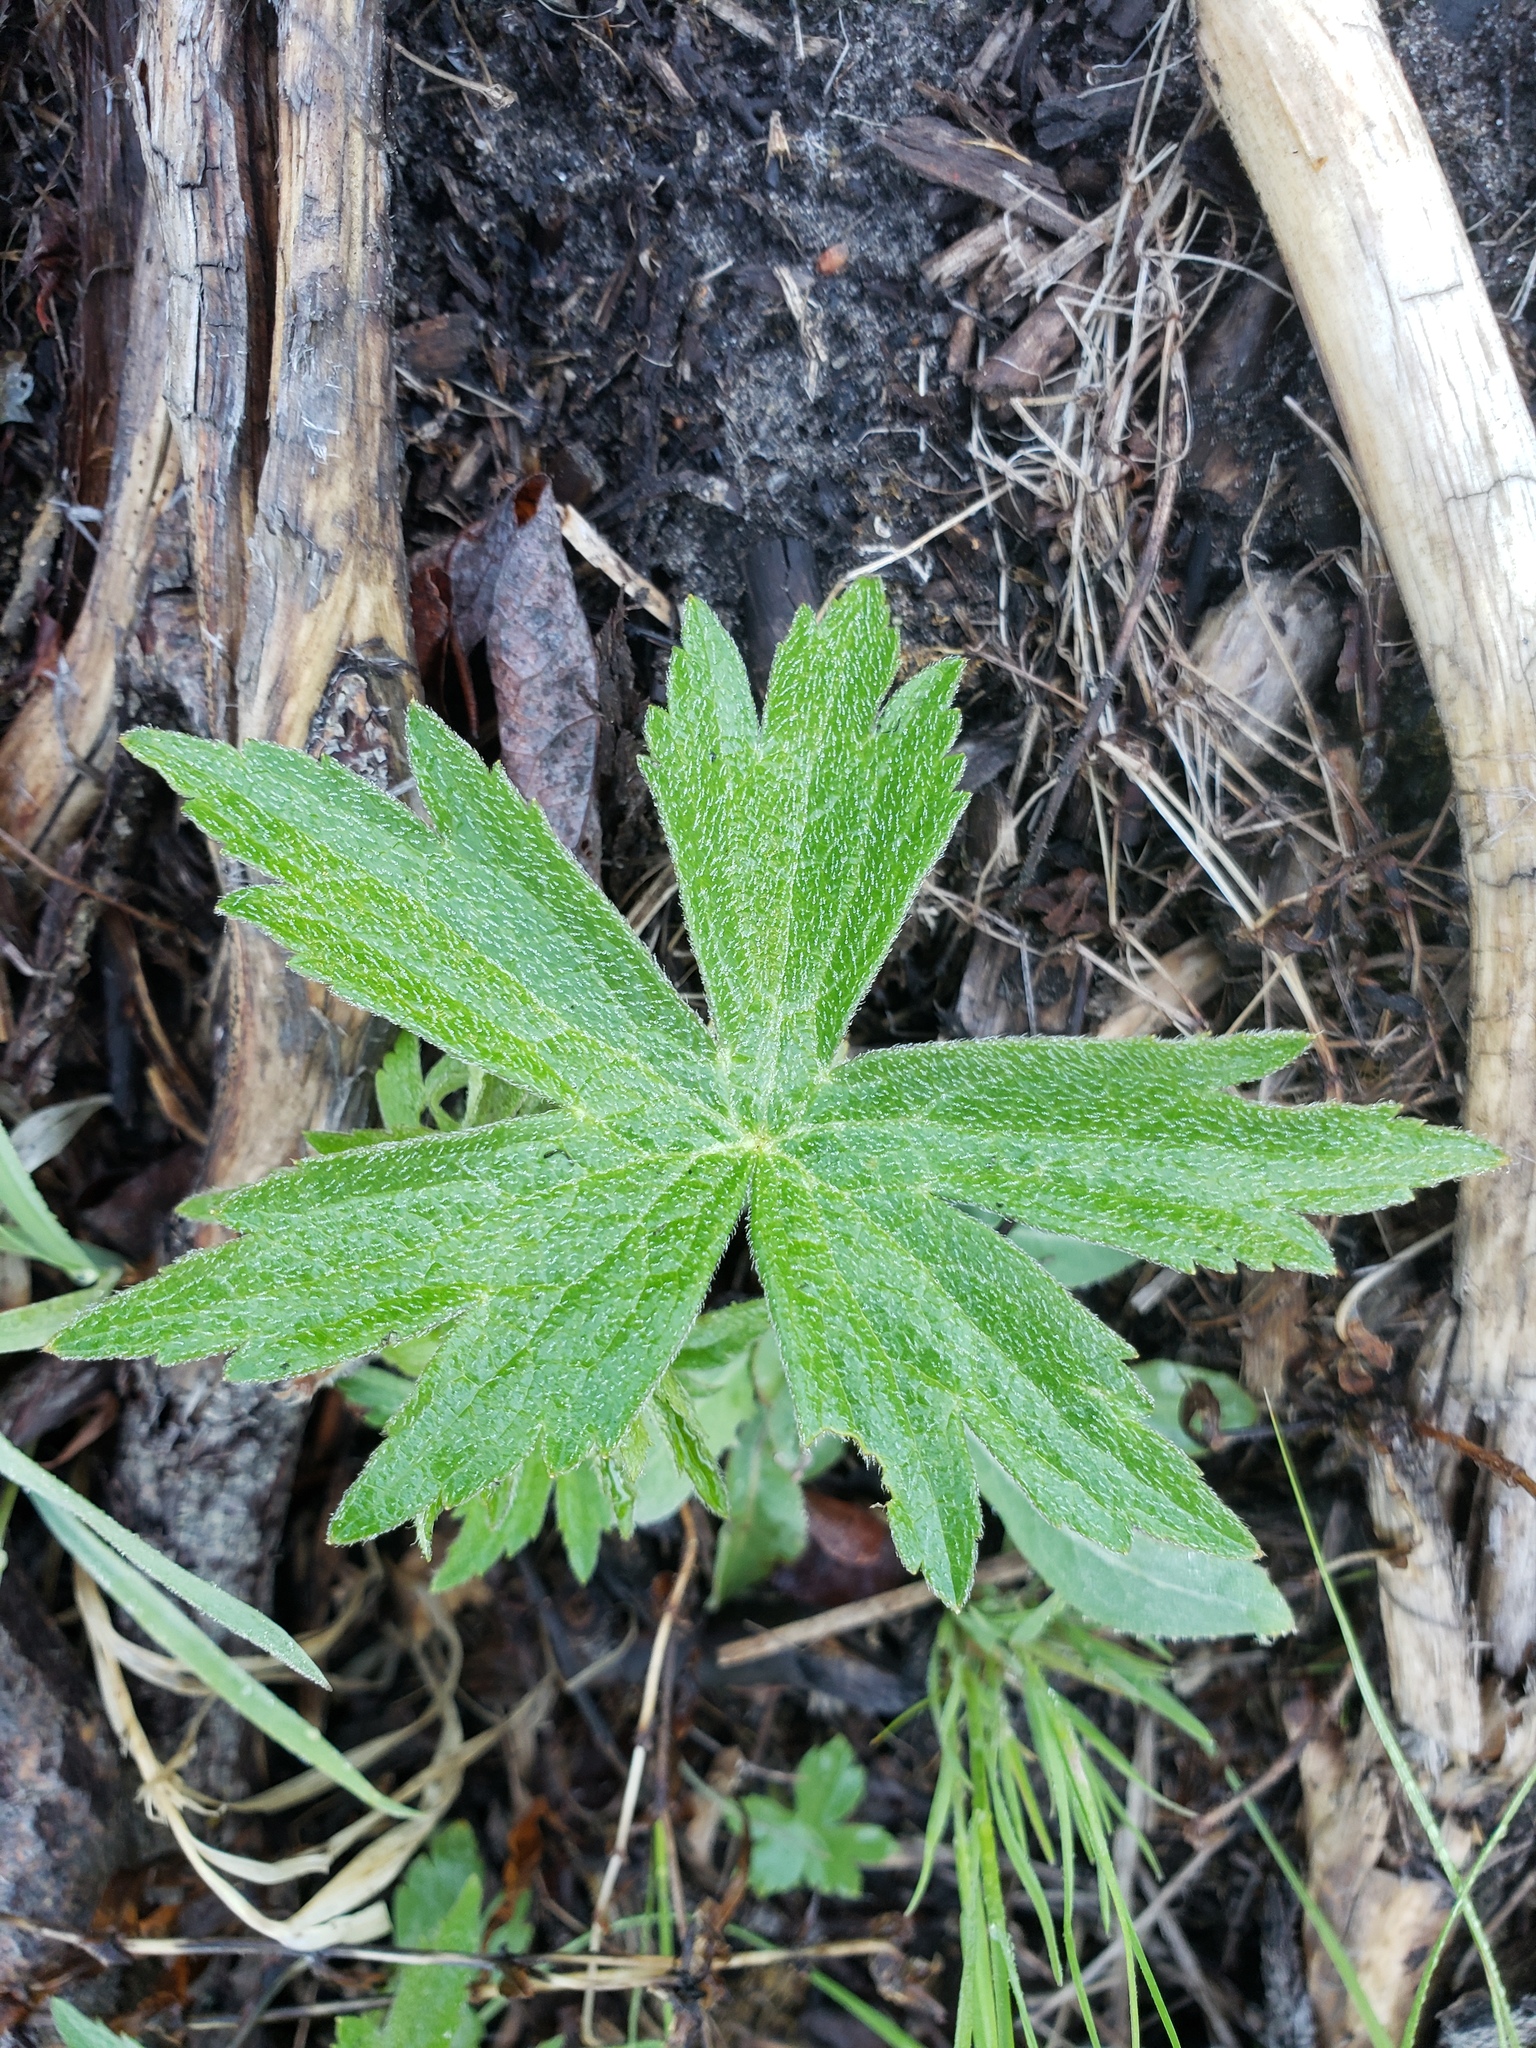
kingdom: Plantae
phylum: Tracheophyta
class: Magnoliopsida
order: Ranunculales
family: Ranunculaceae
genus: Anemonastrum
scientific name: Anemonastrum canadense
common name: Canada anemone
